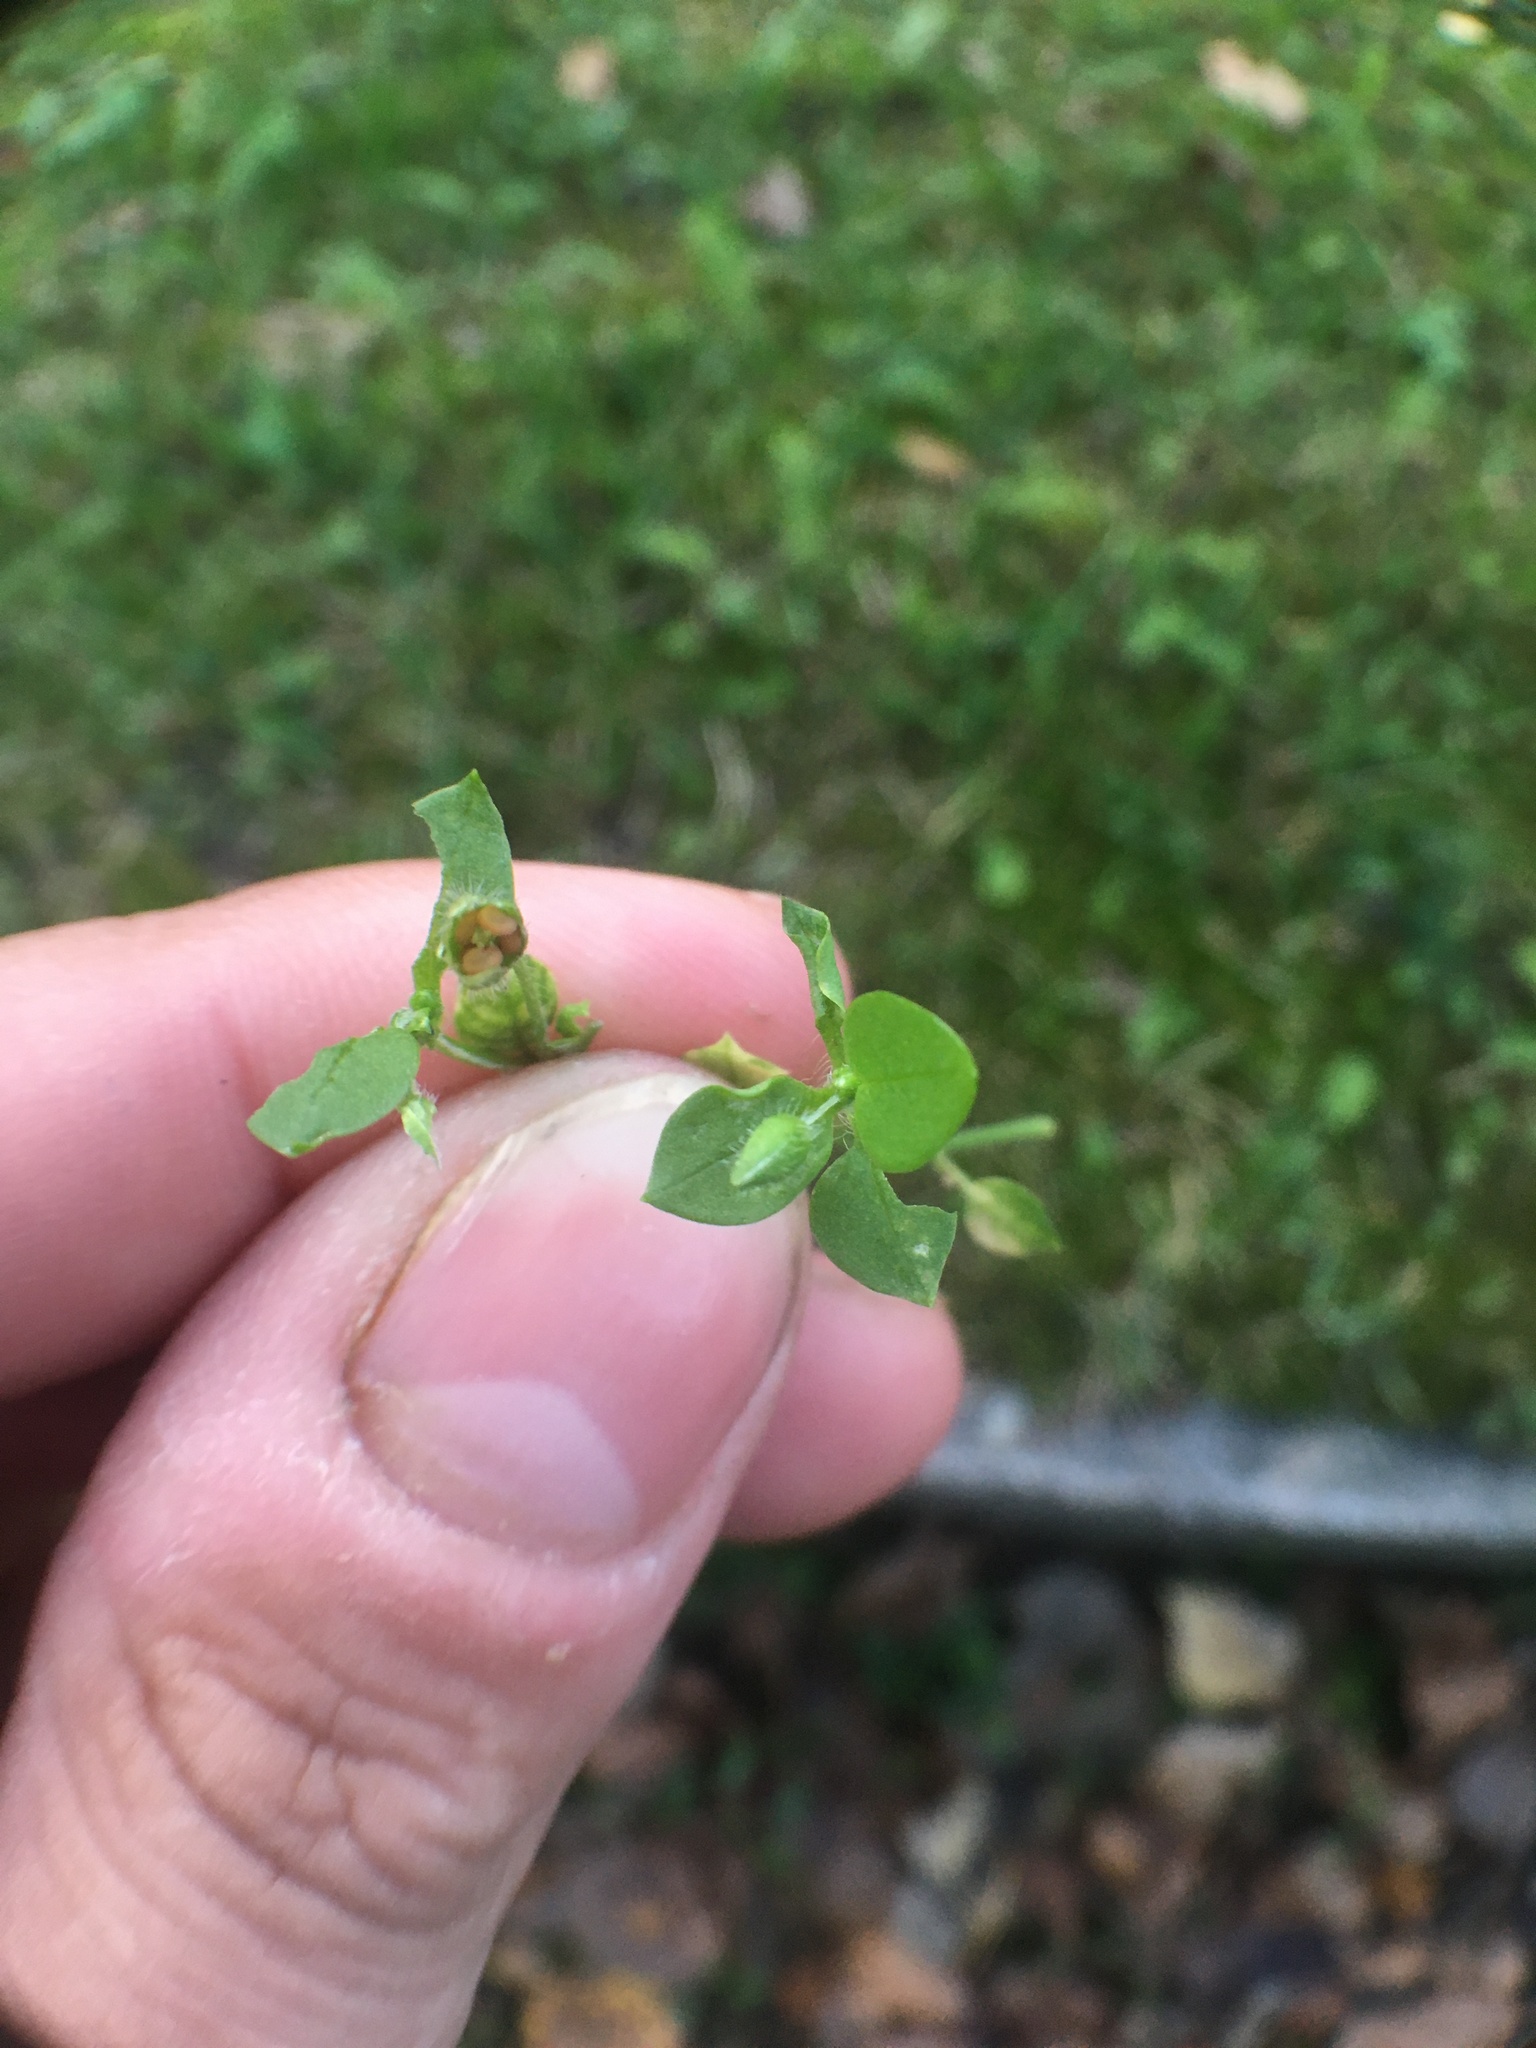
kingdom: Plantae
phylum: Tracheophyta
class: Magnoliopsida
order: Caryophyllales
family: Caryophyllaceae
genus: Stellaria
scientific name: Stellaria media
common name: Common chickweed
